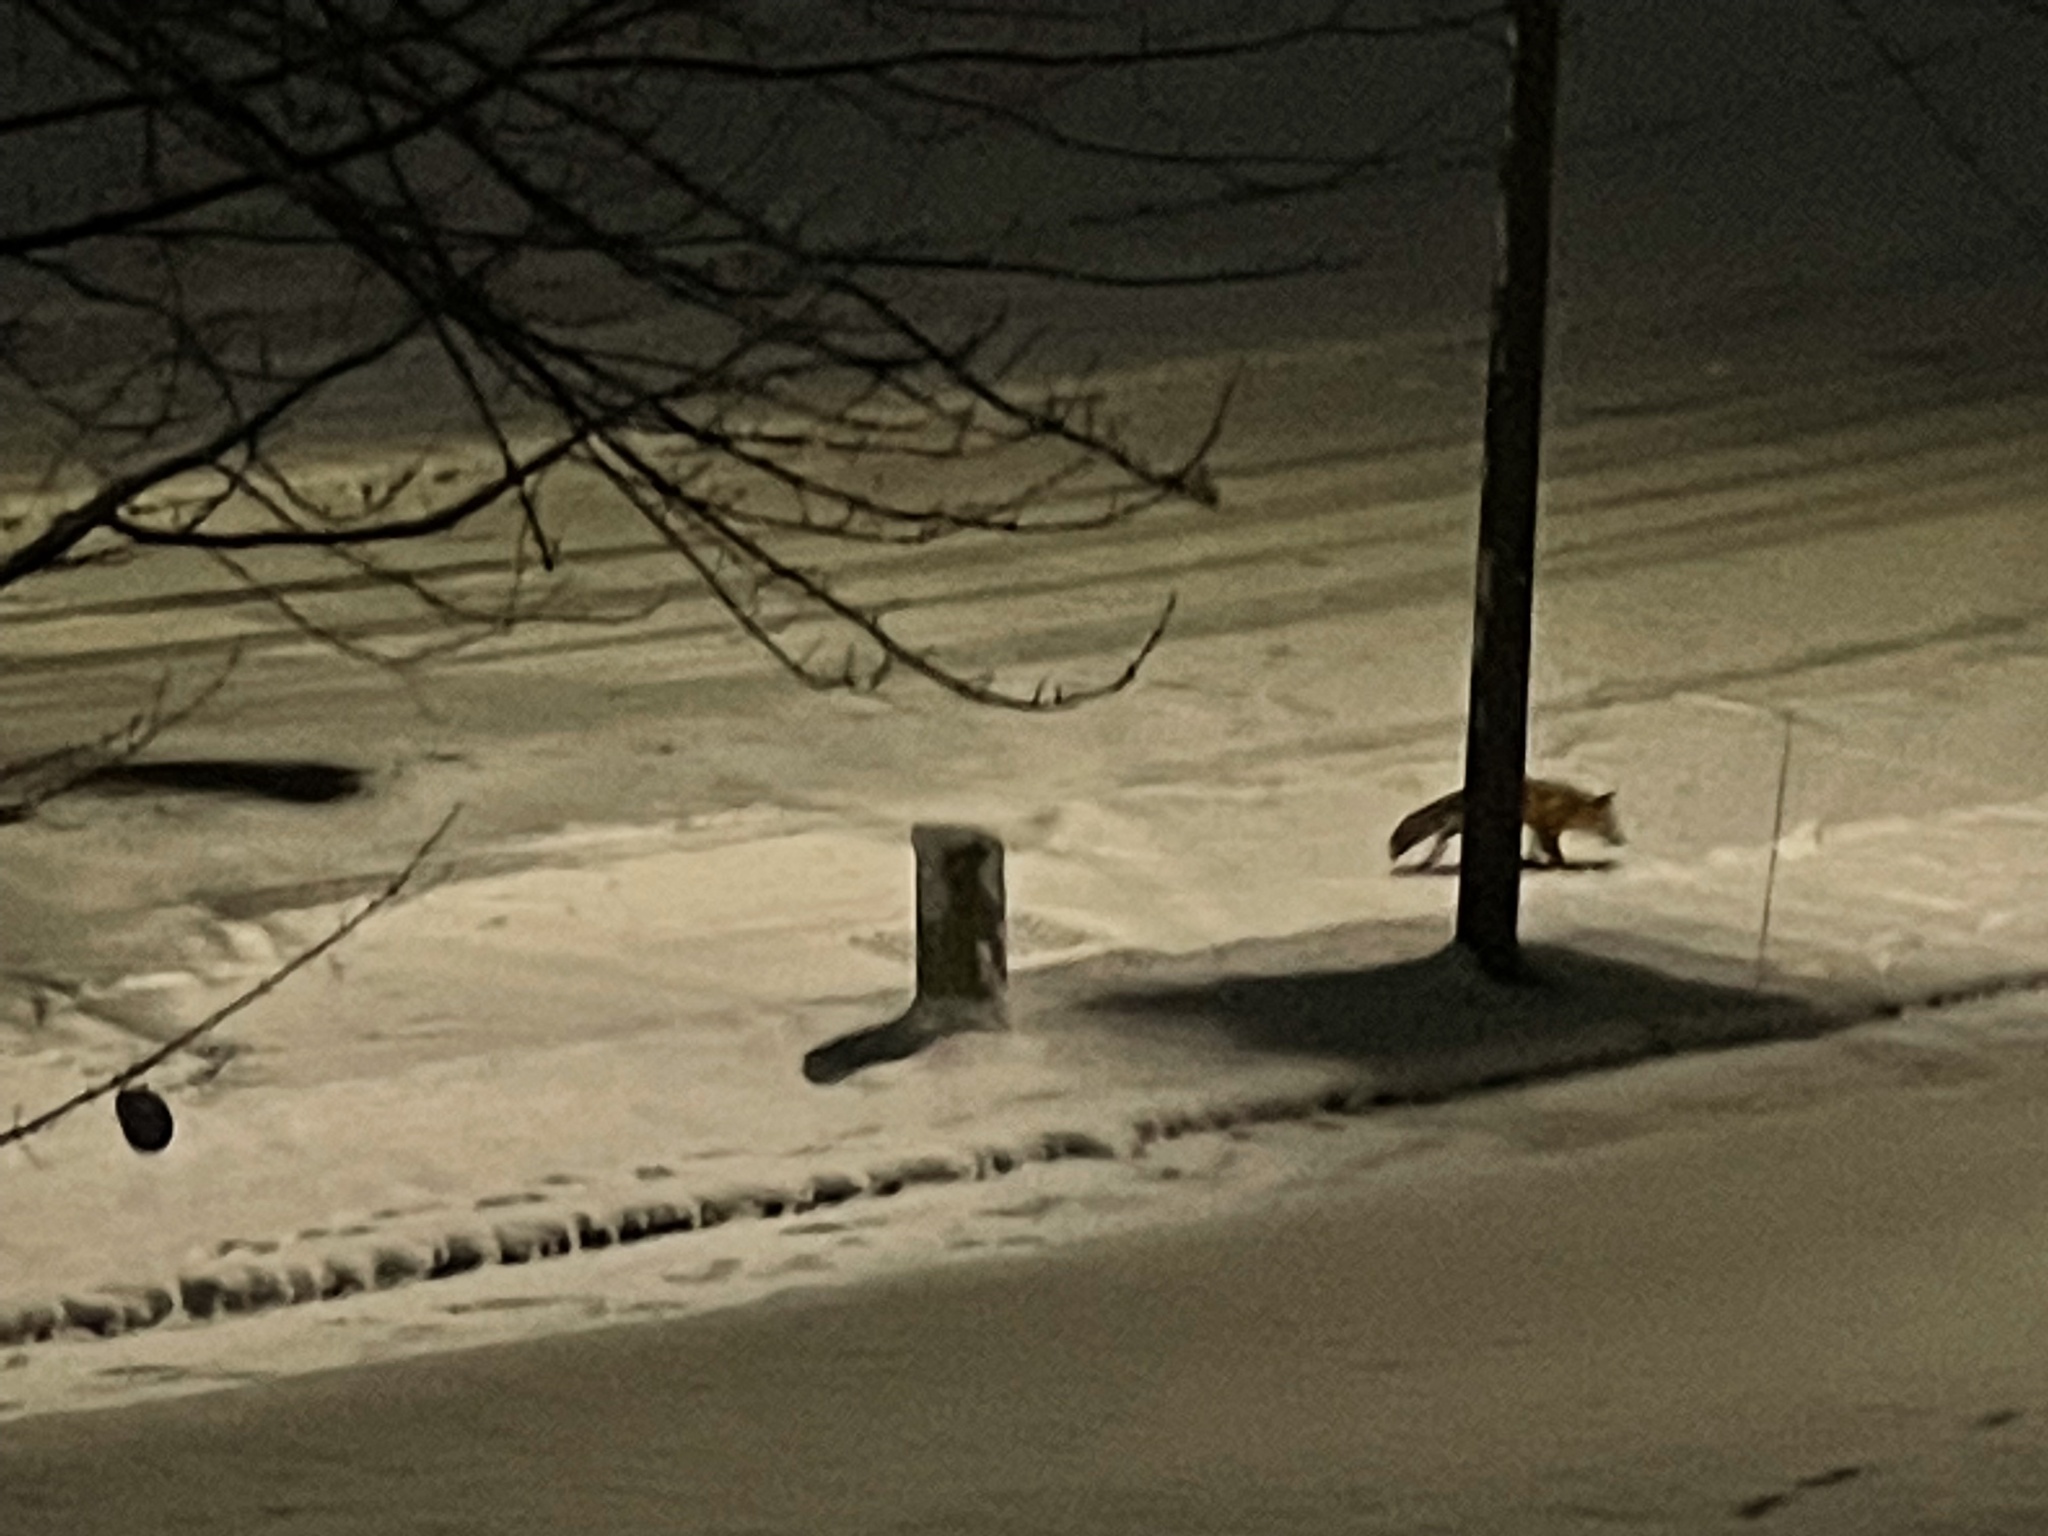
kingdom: Animalia
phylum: Chordata
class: Mammalia
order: Carnivora
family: Canidae
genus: Vulpes
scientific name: Vulpes vulpes
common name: Red fox
